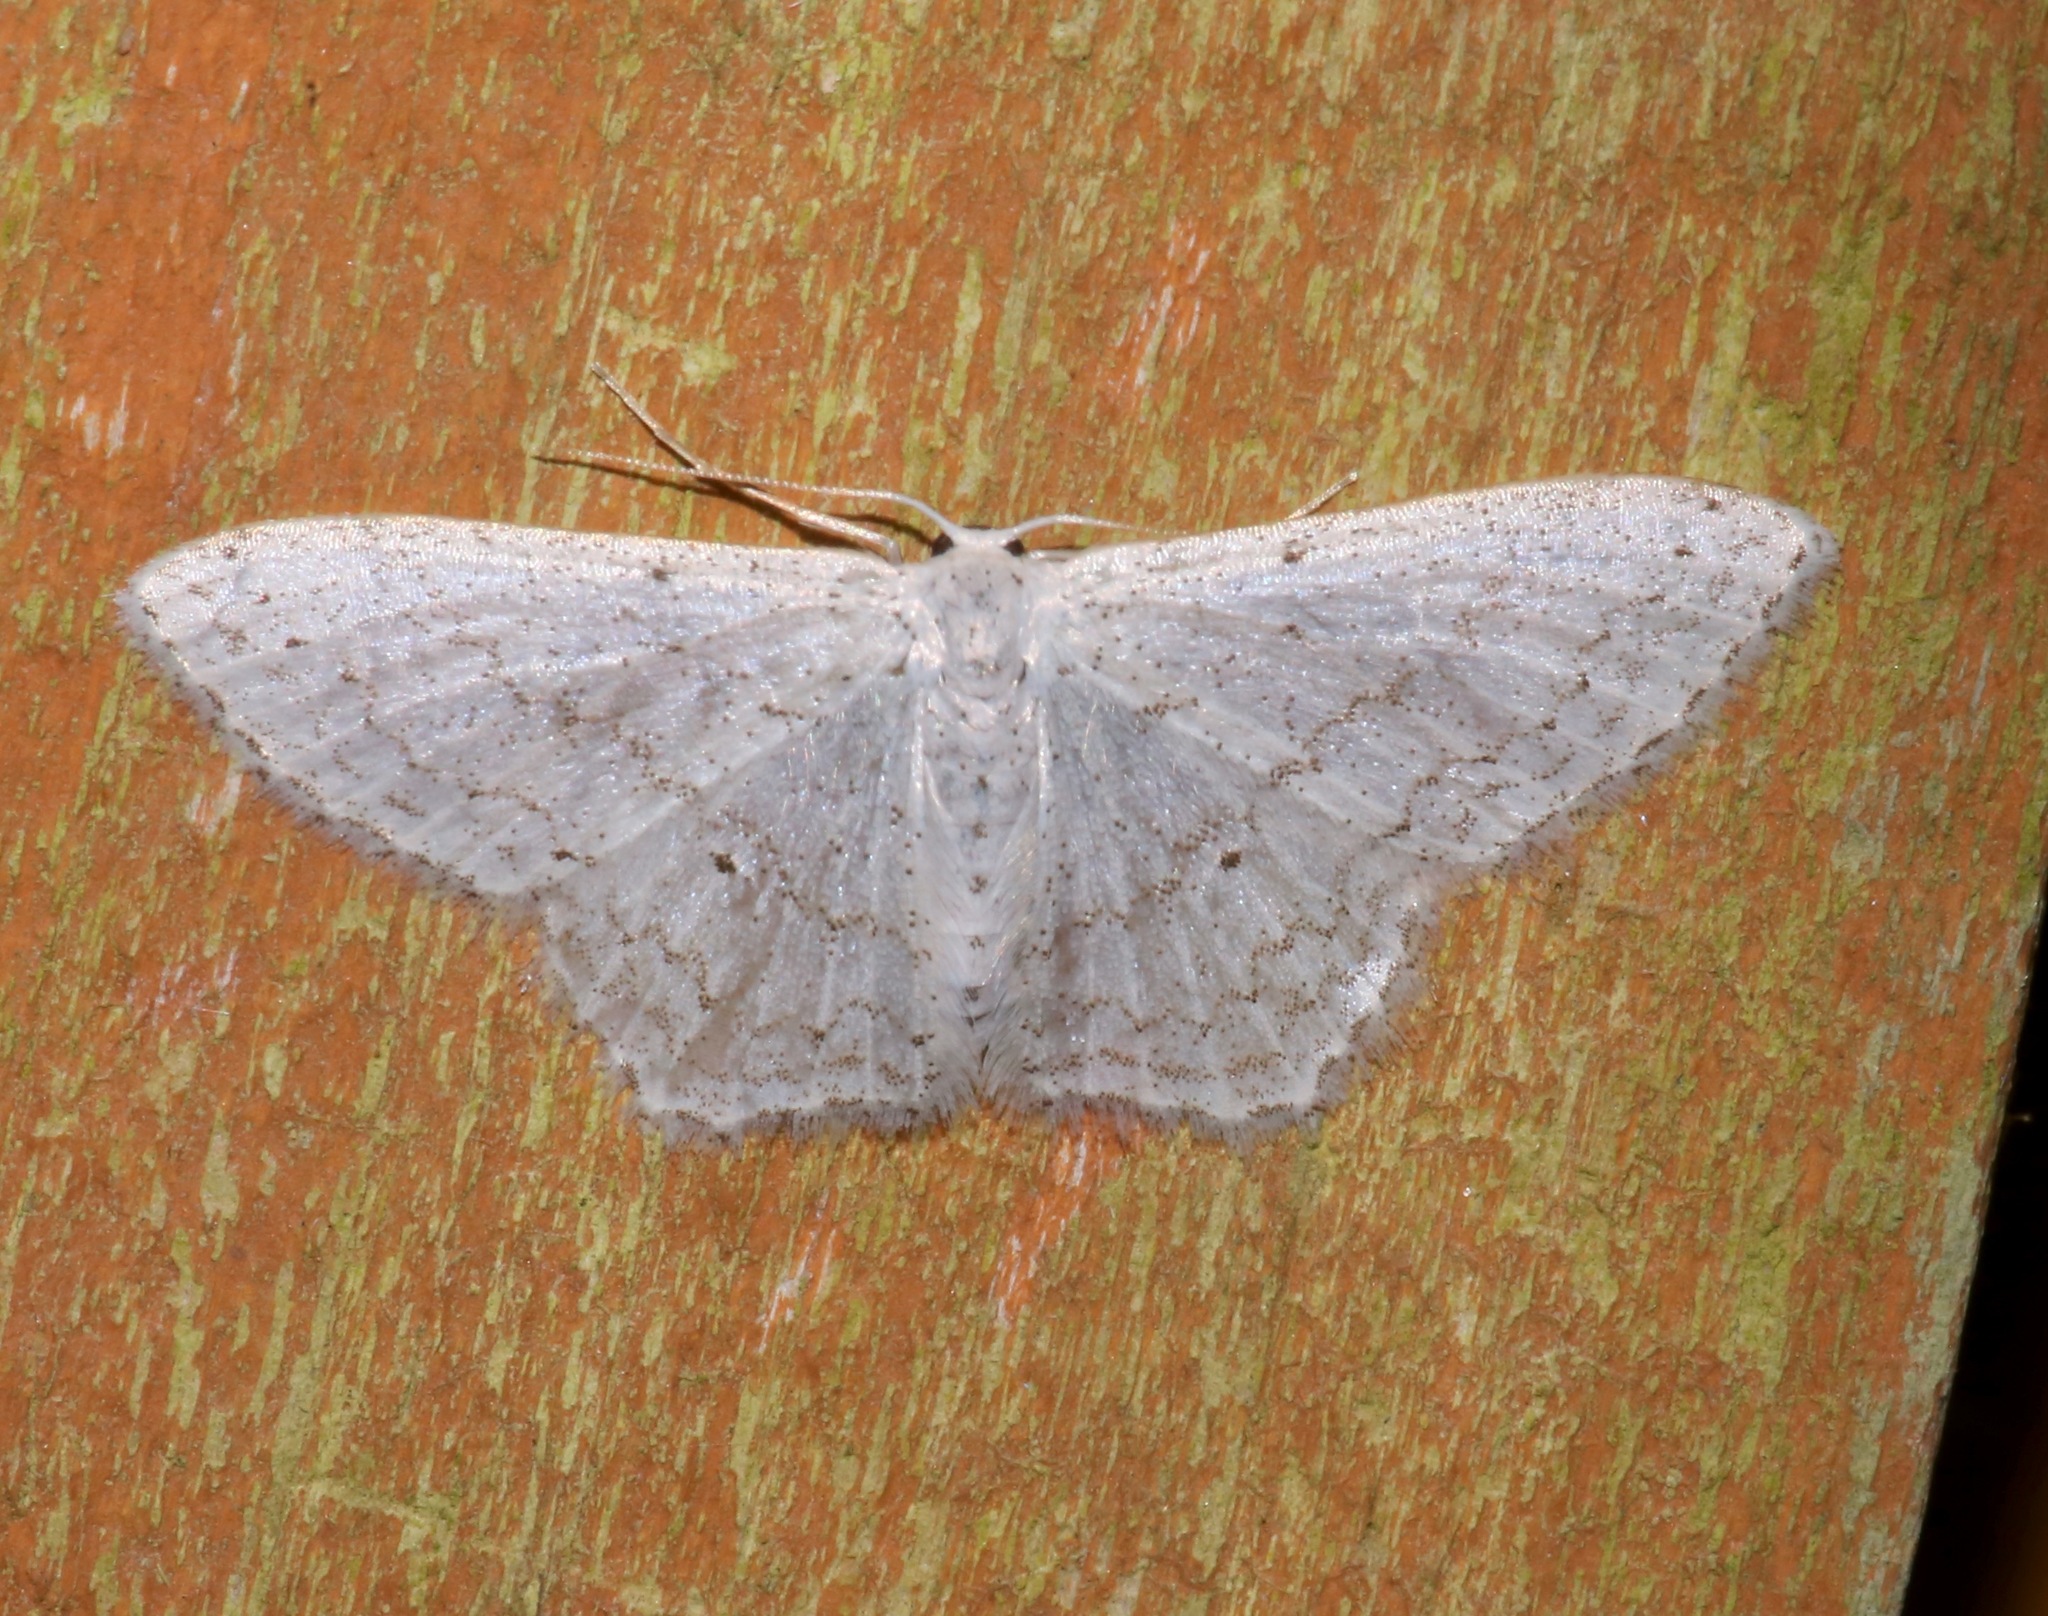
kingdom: Animalia
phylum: Arthropoda
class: Insecta
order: Lepidoptera
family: Geometridae
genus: Idaea
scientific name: Idaea tacturata
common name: Dot-lined wave
